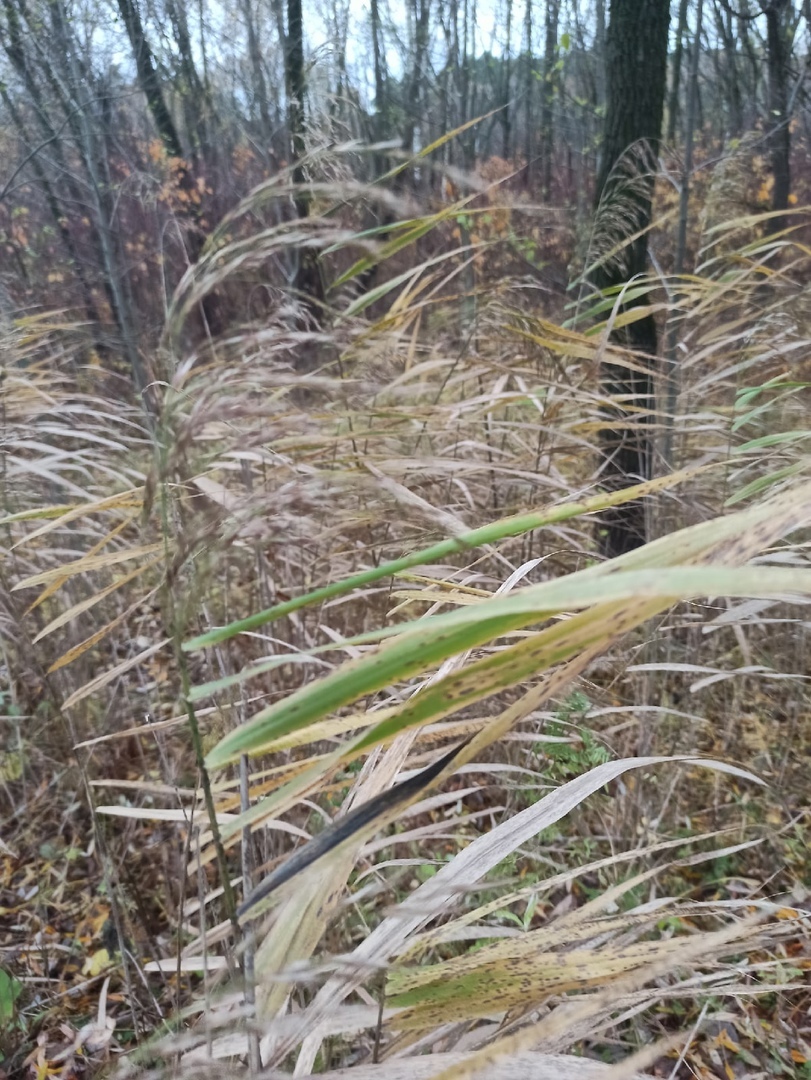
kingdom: Plantae
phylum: Tracheophyta
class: Liliopsida
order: Poales
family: Poaceae
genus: Phragmites
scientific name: Phragmites australis
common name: Common reed
